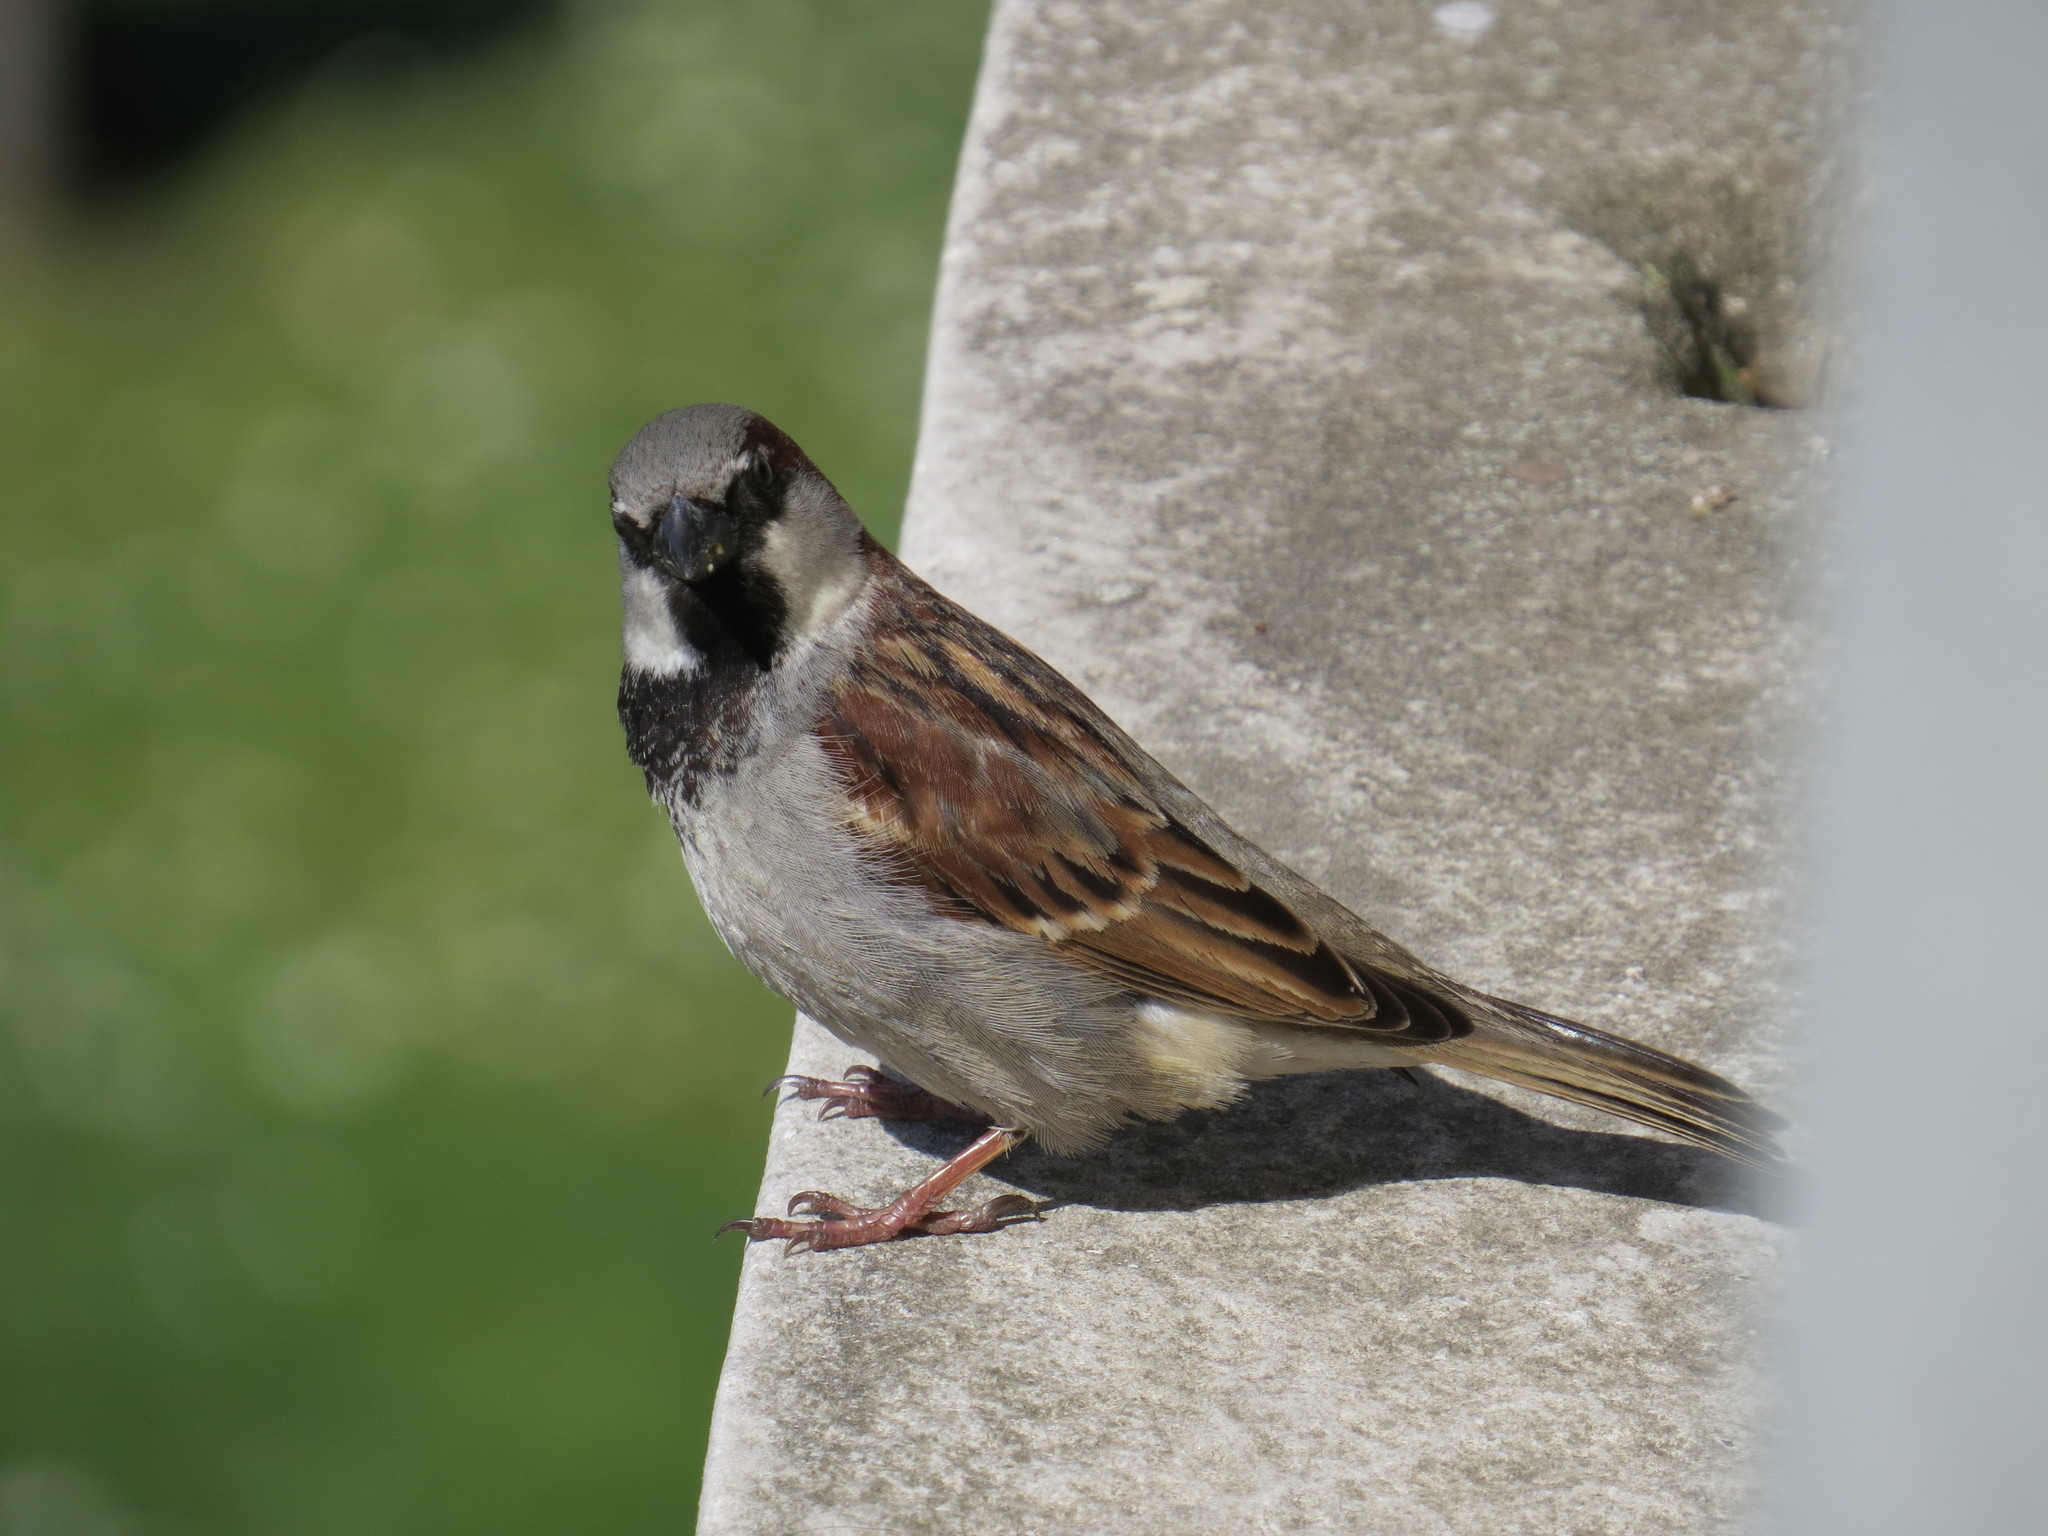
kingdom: Animalia
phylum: Chordata
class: Aves
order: Passeriformes
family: Passeridae
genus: Passer
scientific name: Passer domesticus
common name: House sparrow
